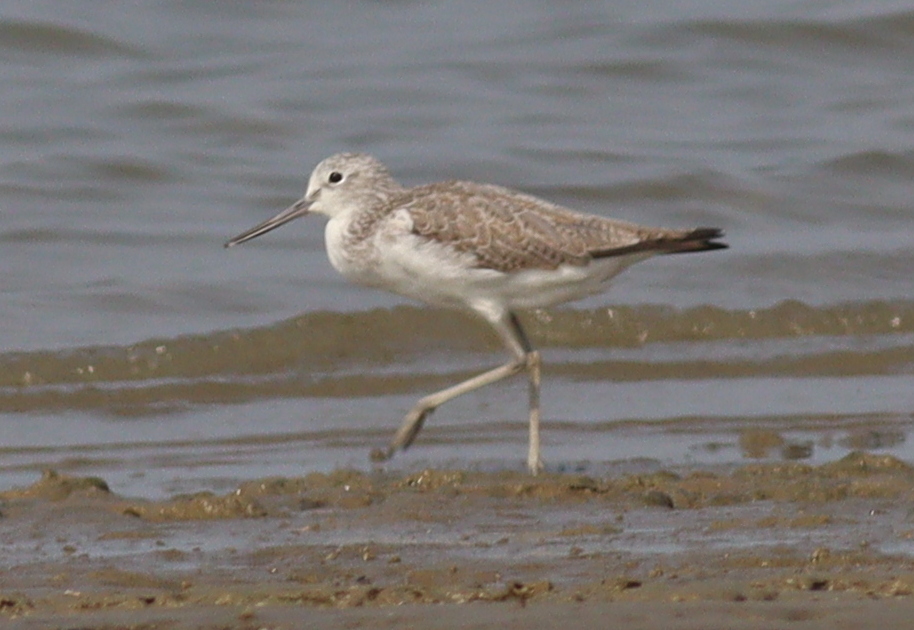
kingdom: Animalia
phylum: Chordata
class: Aves
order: Charadriiformes
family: Scolopacidae
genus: Tringa
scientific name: Tringa nebularia
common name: Common greenshank
